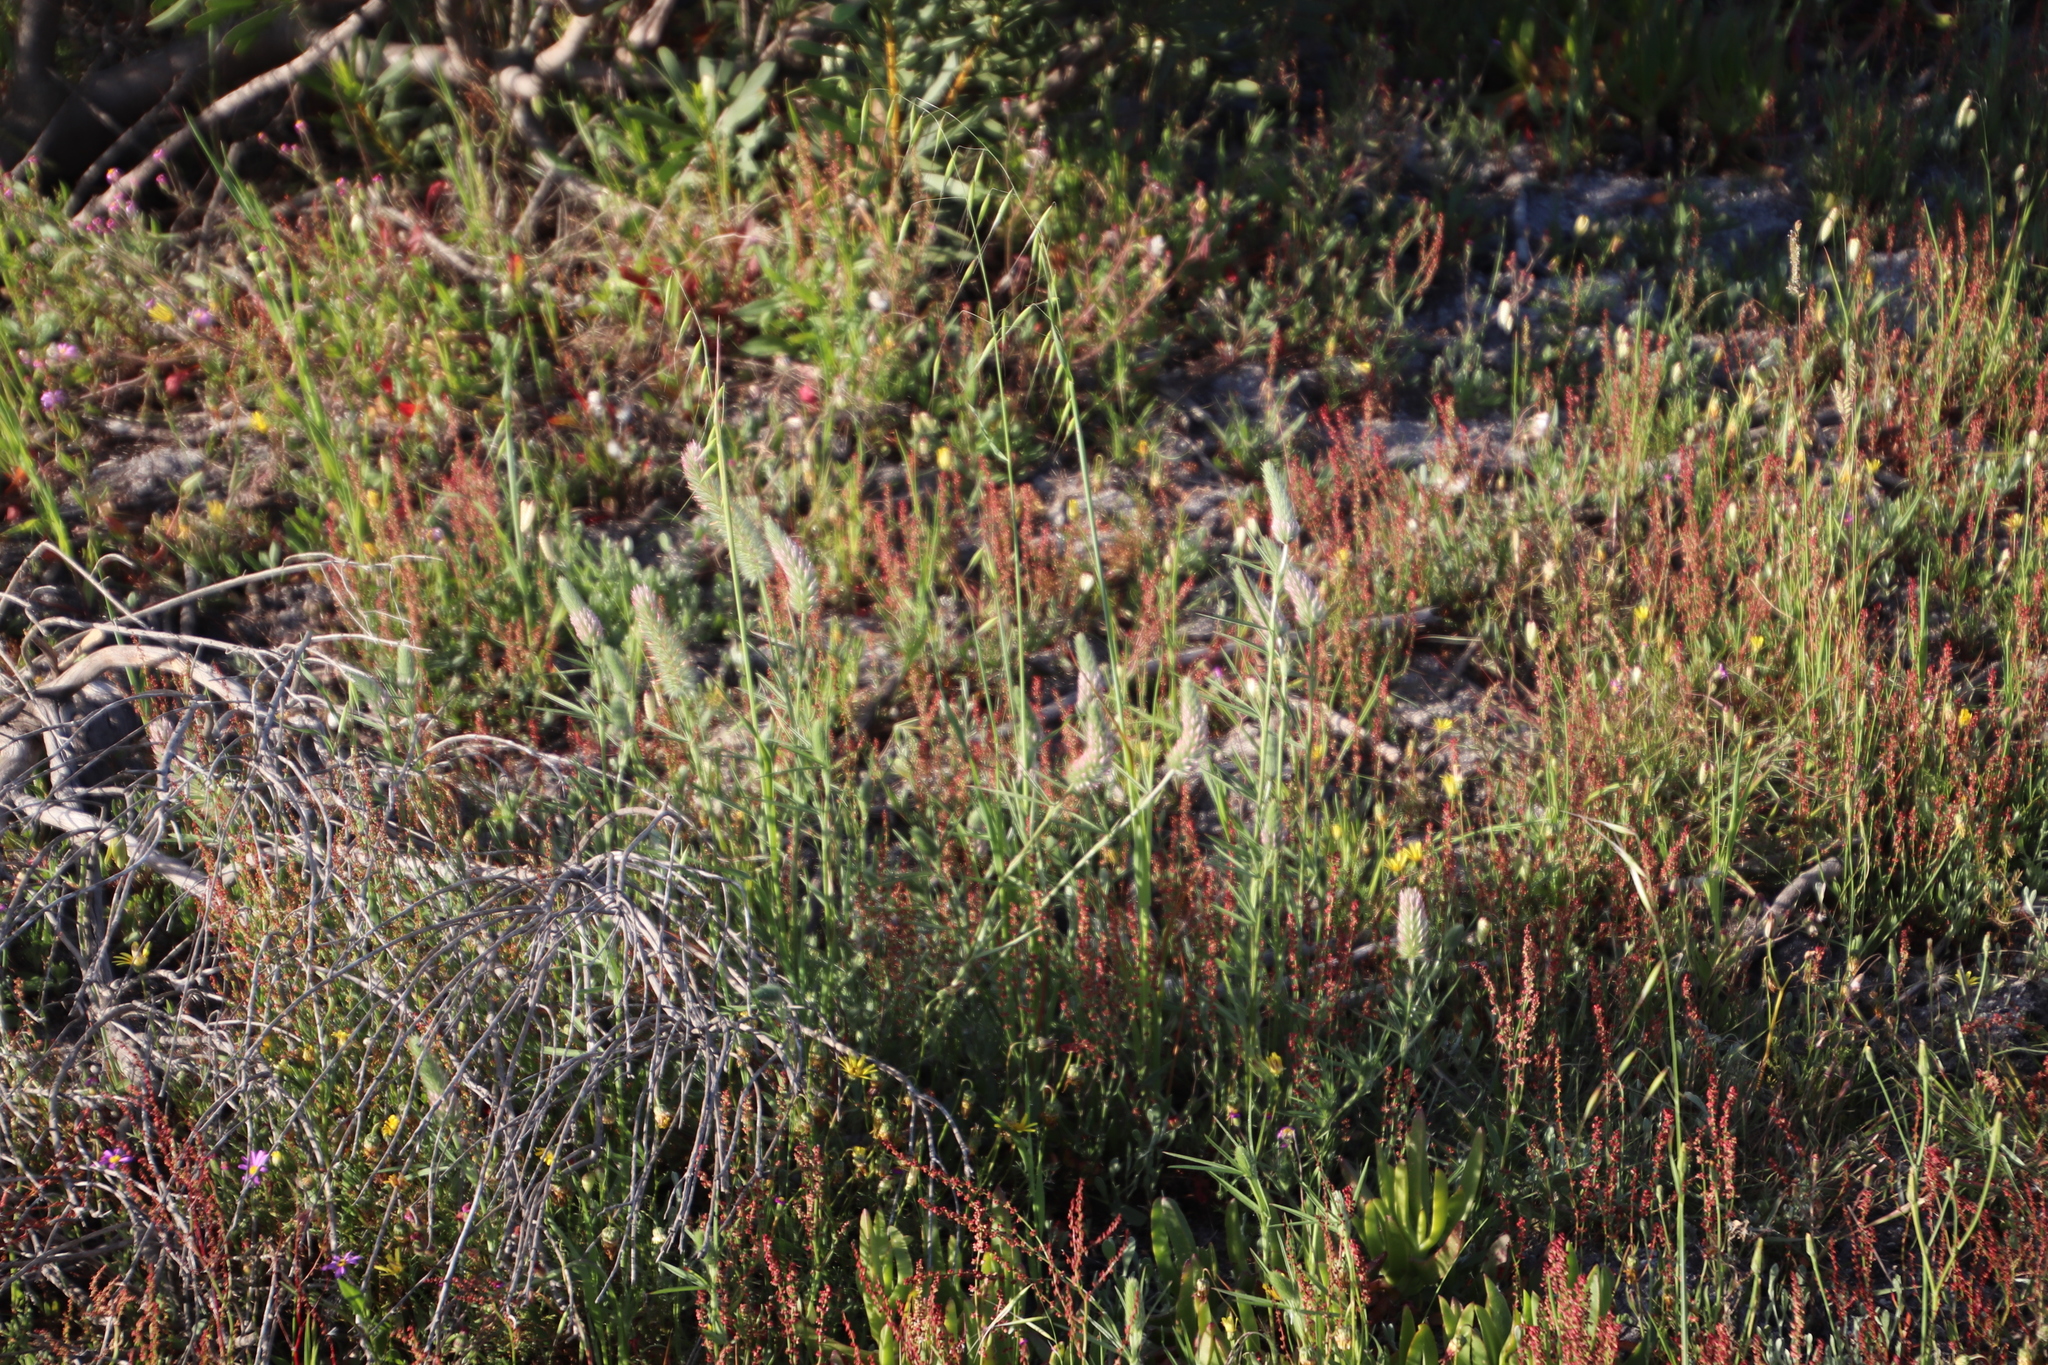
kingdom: Plantae
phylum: Tracheophyta
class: Magnoliopsida
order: Fabales
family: Fabaceae
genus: Trifolium
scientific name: Trifolium angustifolium
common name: Narrow clover
